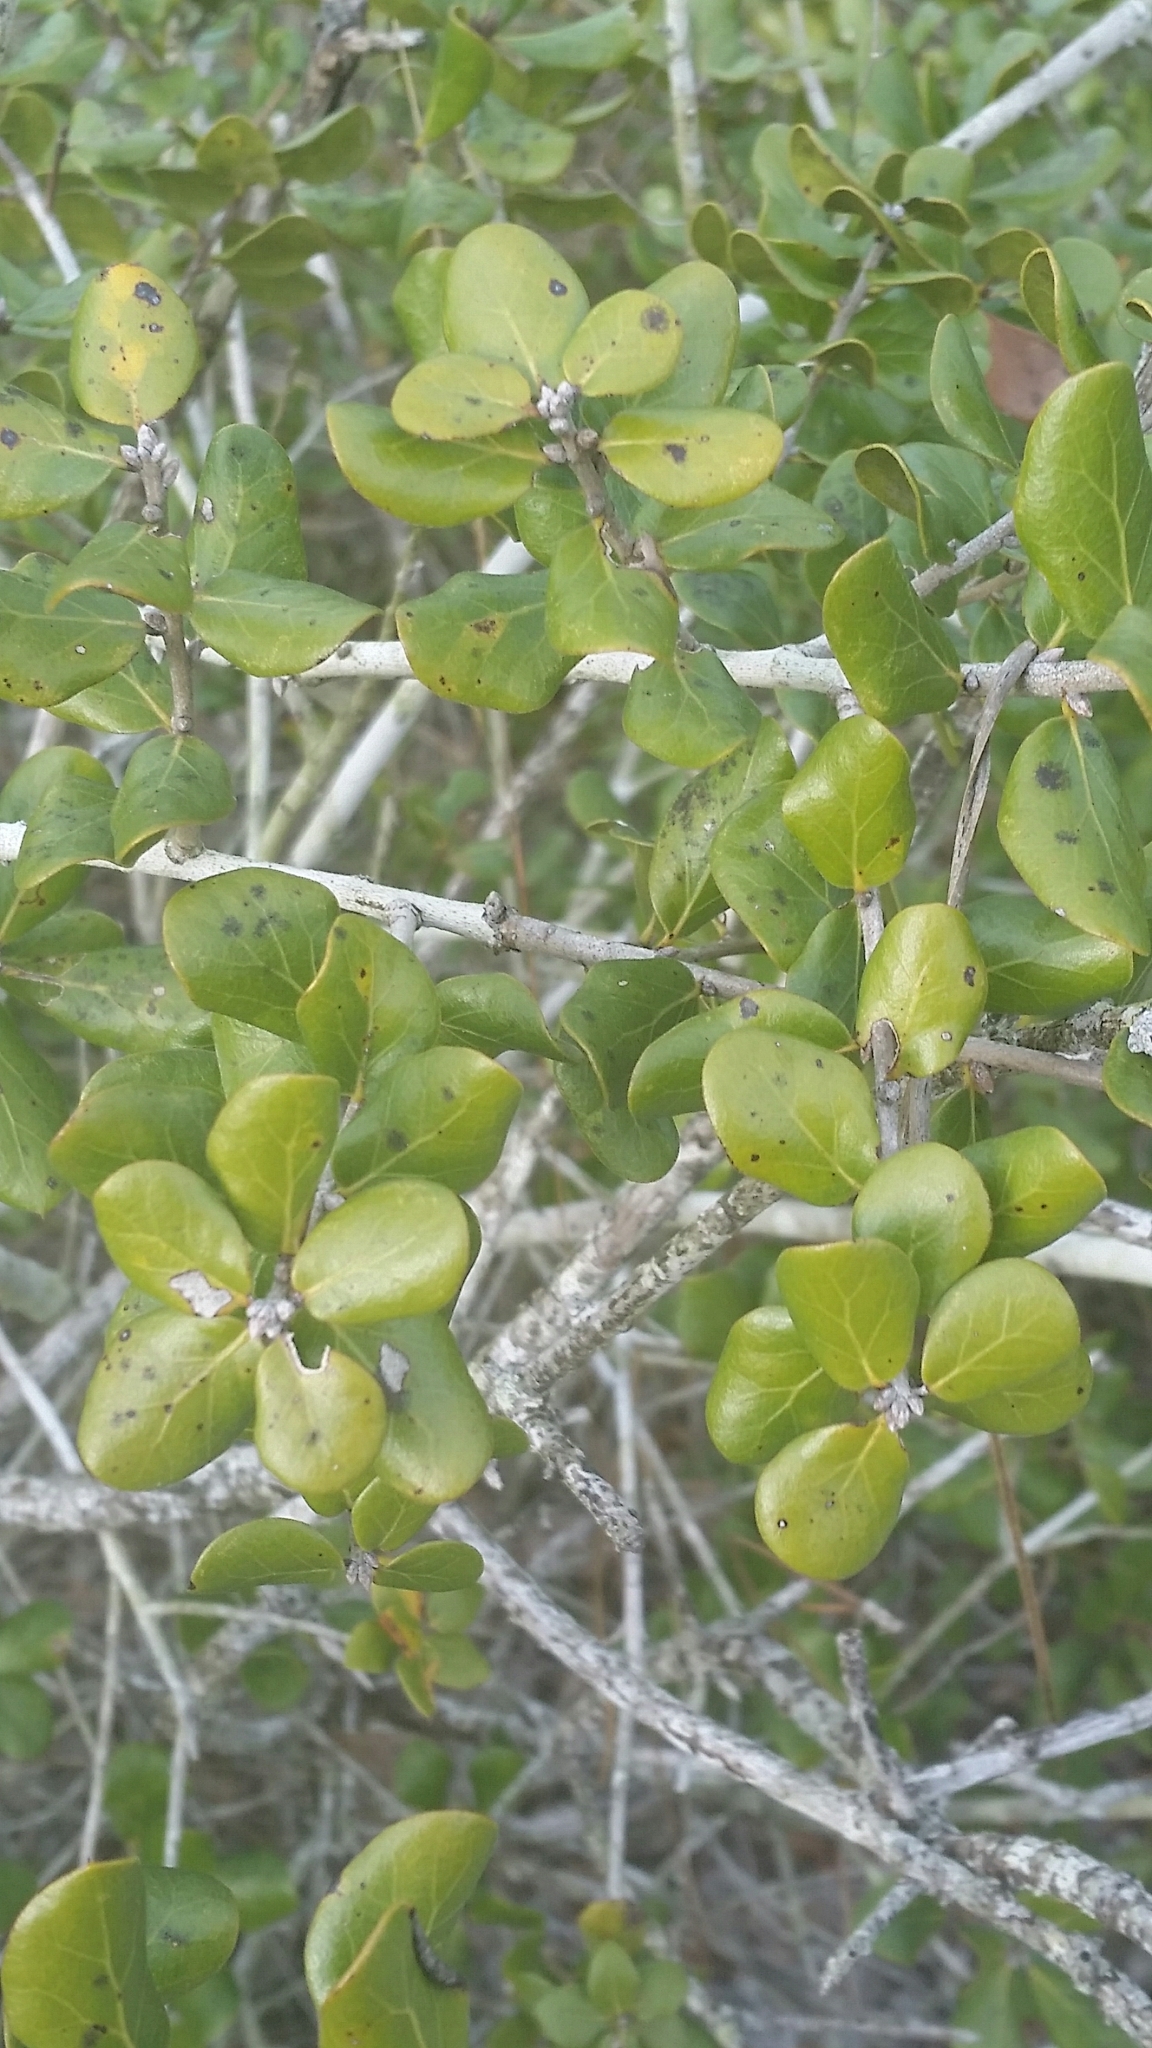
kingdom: Plantae
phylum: Tracheophyta
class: Magnoliopsida
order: Fagales
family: Fagaceae
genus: Quercus
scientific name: Quercus myrtifolia
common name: Myrtle oak
